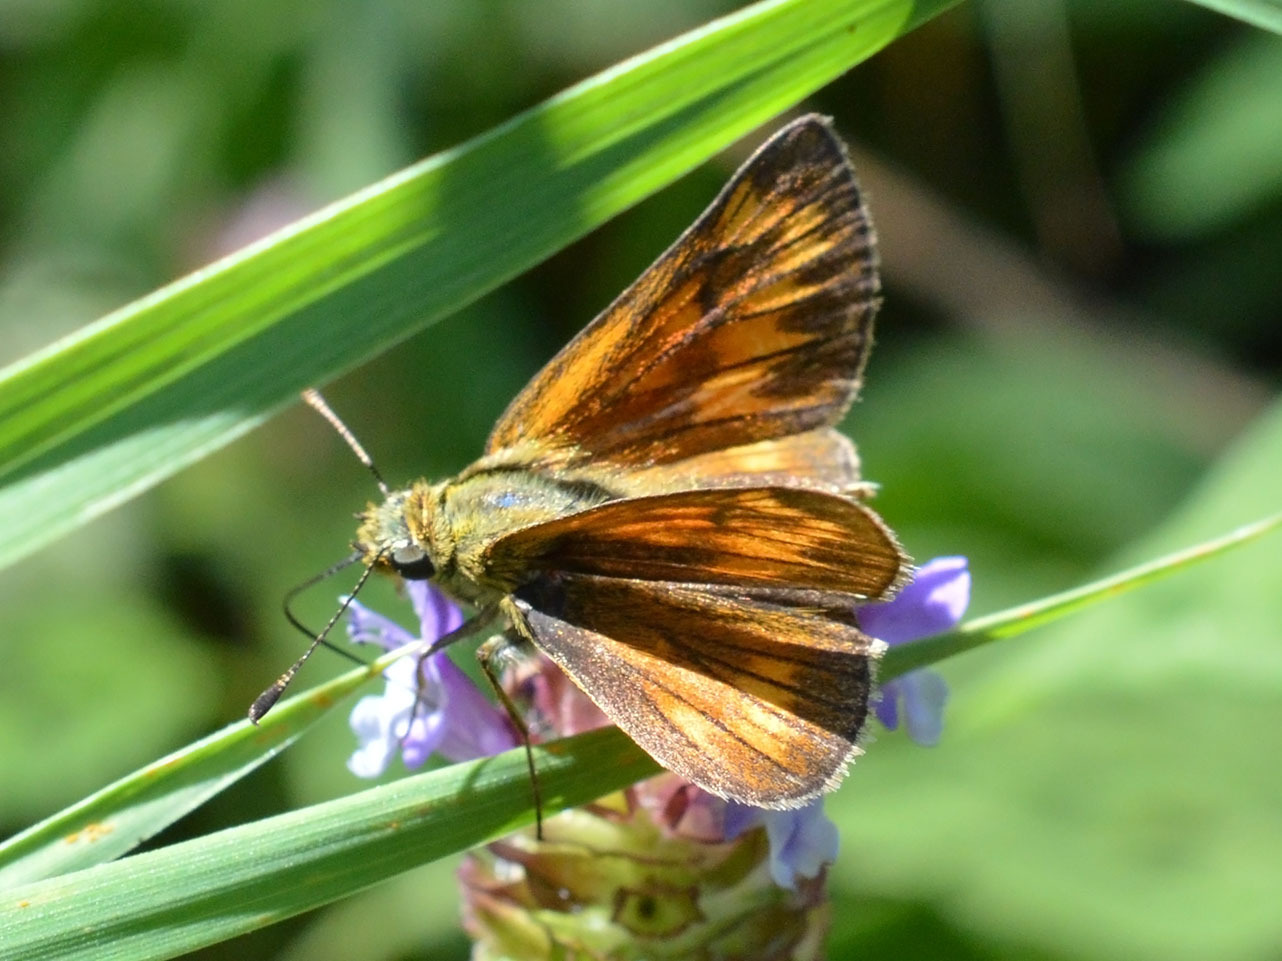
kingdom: Animalia
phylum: Arthropoda
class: Insecta
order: Lepidoptera
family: Hesperiidae
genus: Ochlodes
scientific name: Ochlodes venata
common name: Large skipper
